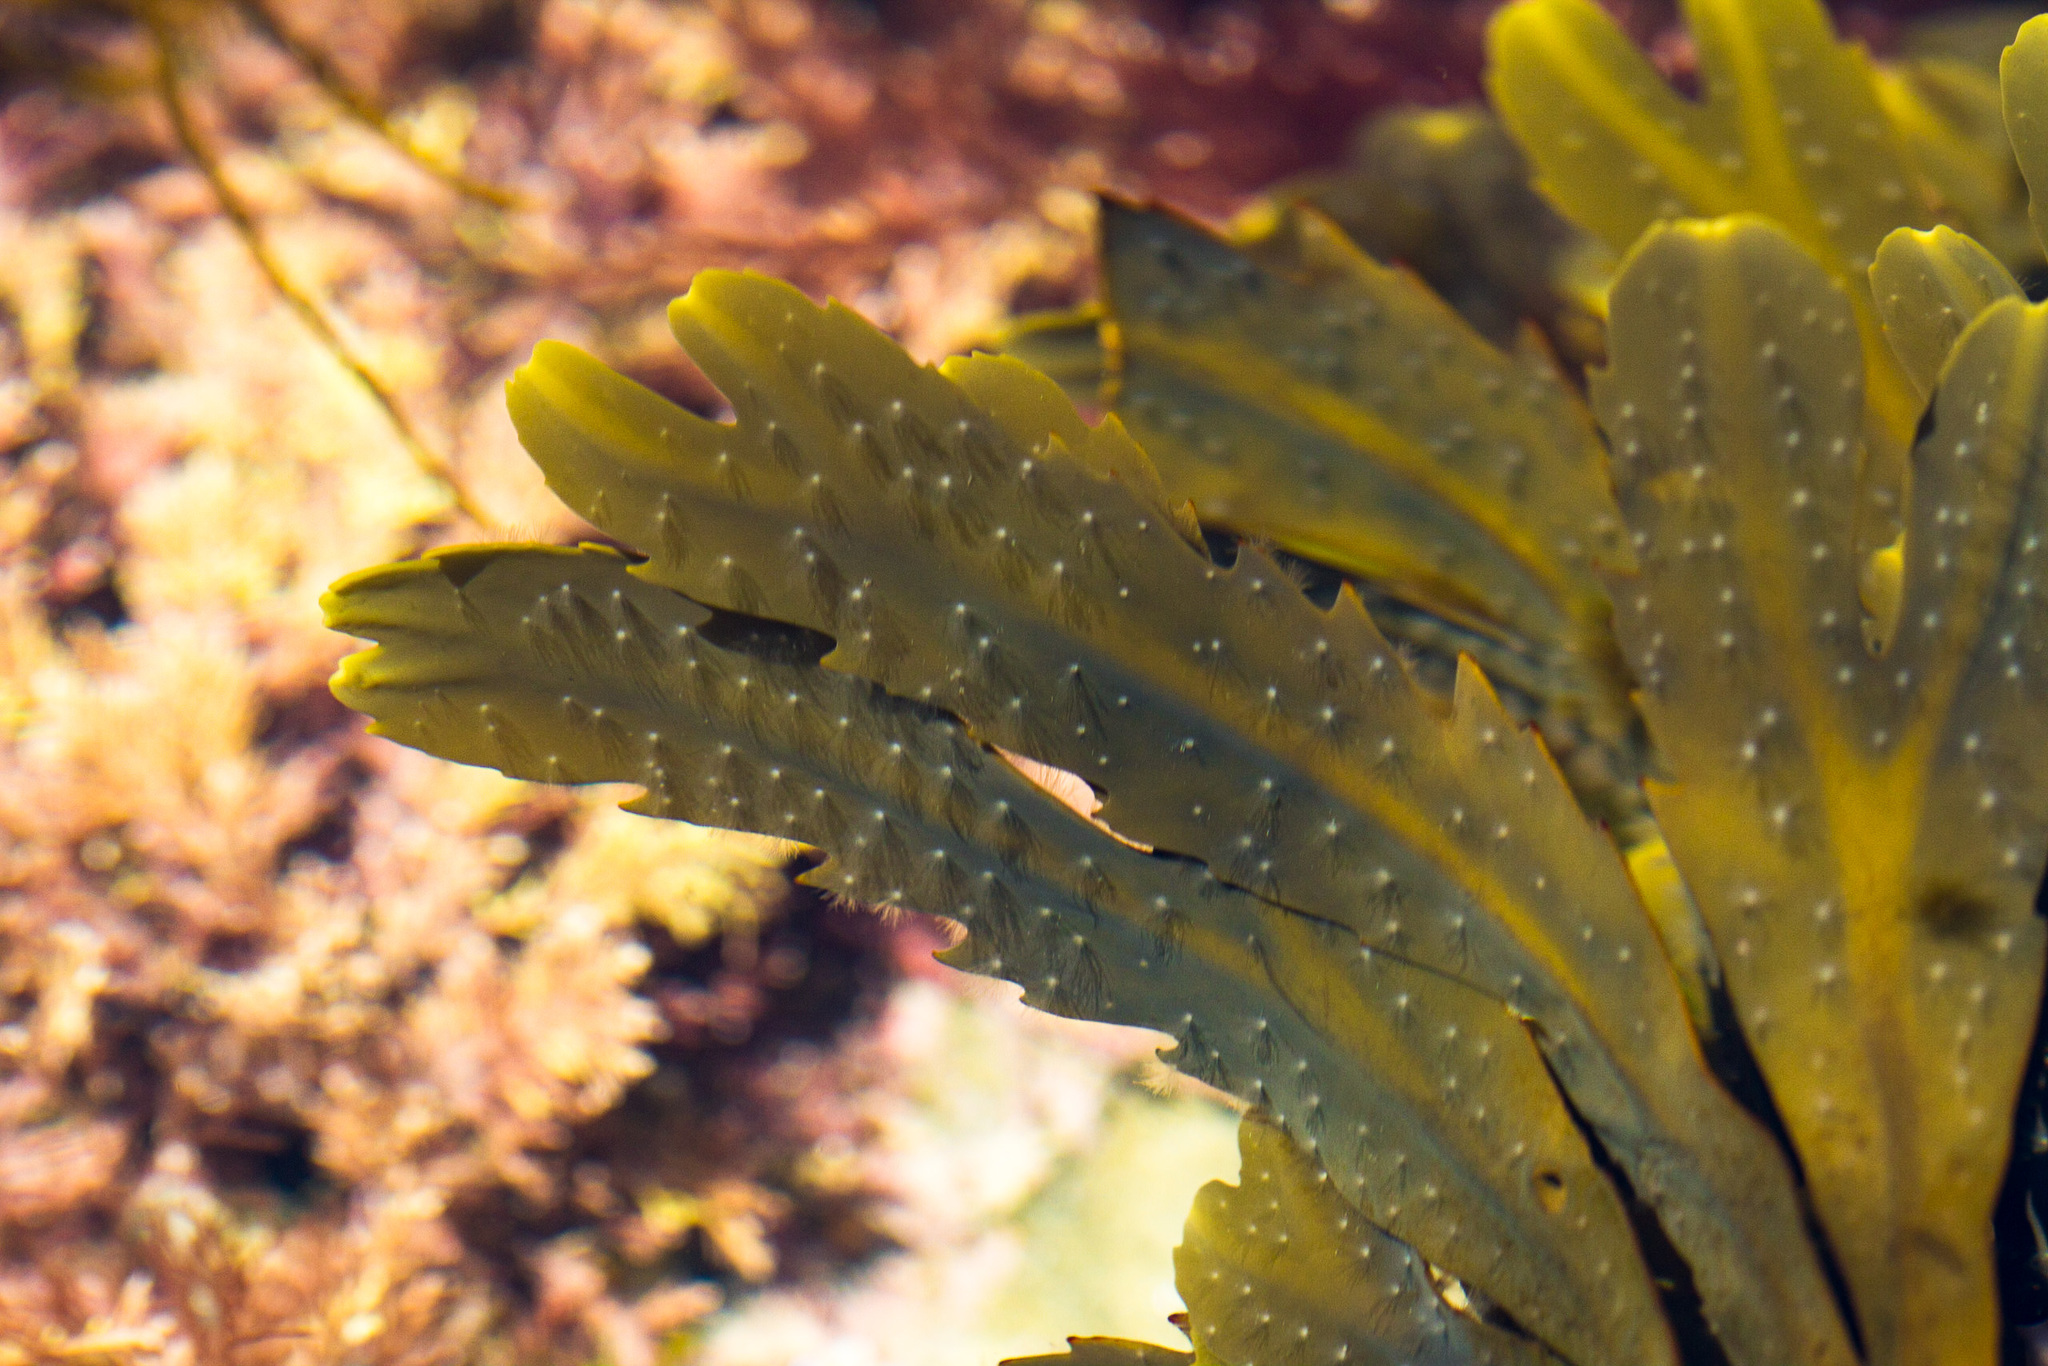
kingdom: Chromista
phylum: Ochrophyta
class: Phaeophyceae
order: Fucales
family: Fucaceae
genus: Fucus
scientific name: Fucus serratus
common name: Toothed wrack
